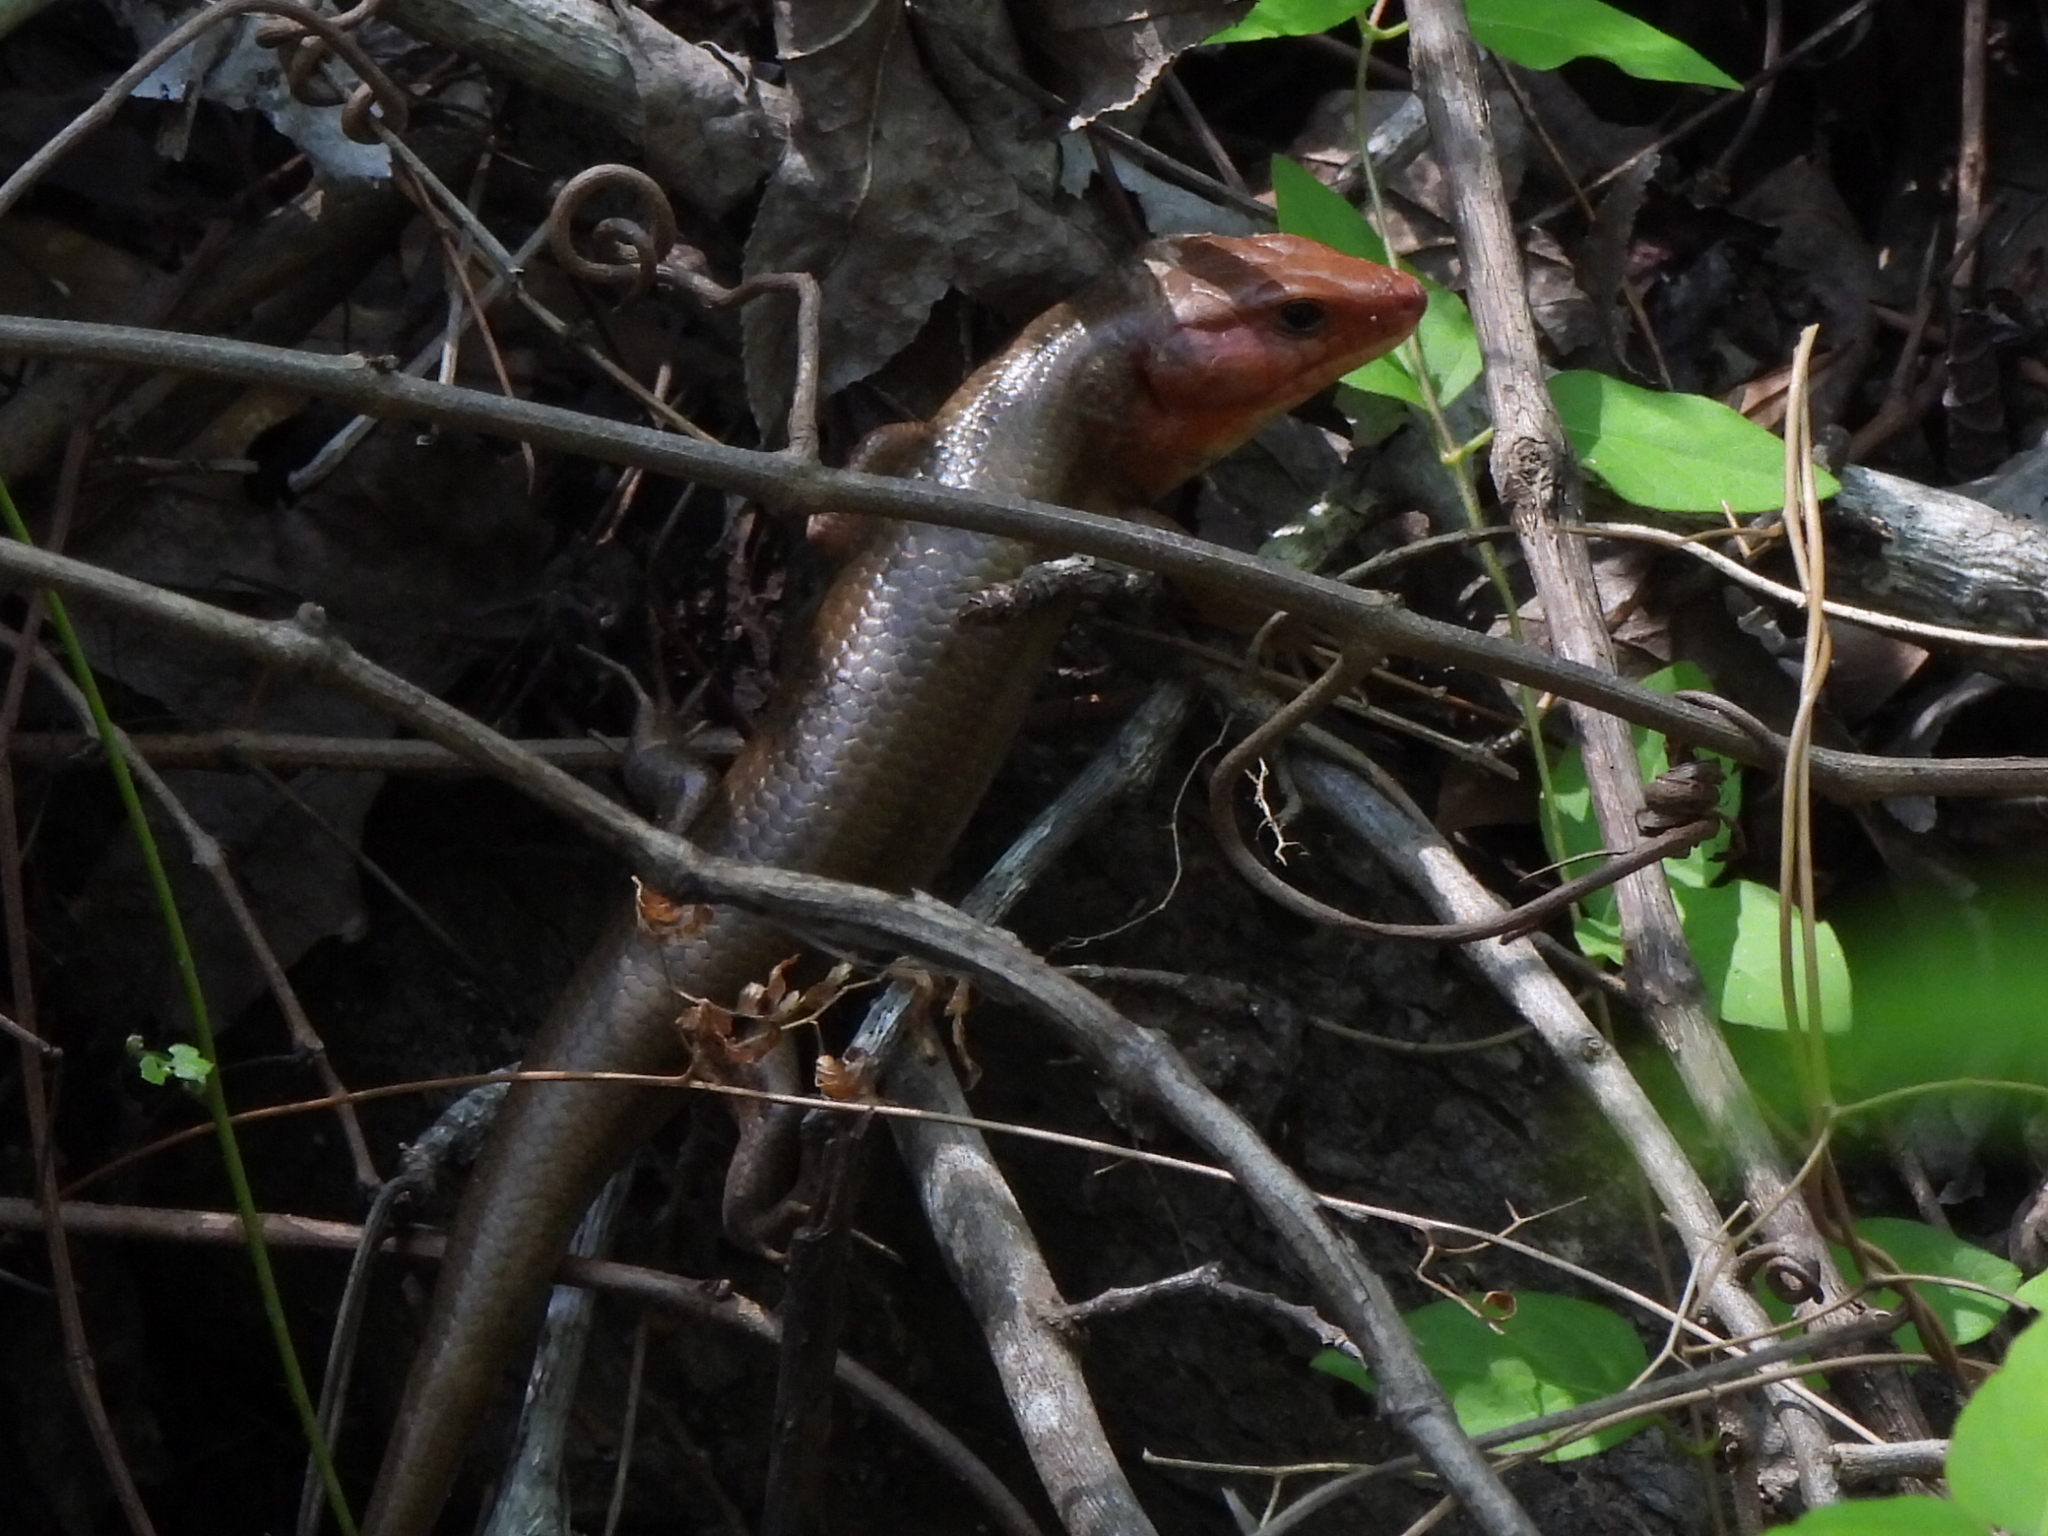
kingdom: Animalia
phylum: Chordata
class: Squamata
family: Scincidae
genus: Plestiodon
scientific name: Plestiodon laticeps
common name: Broadhead skink
